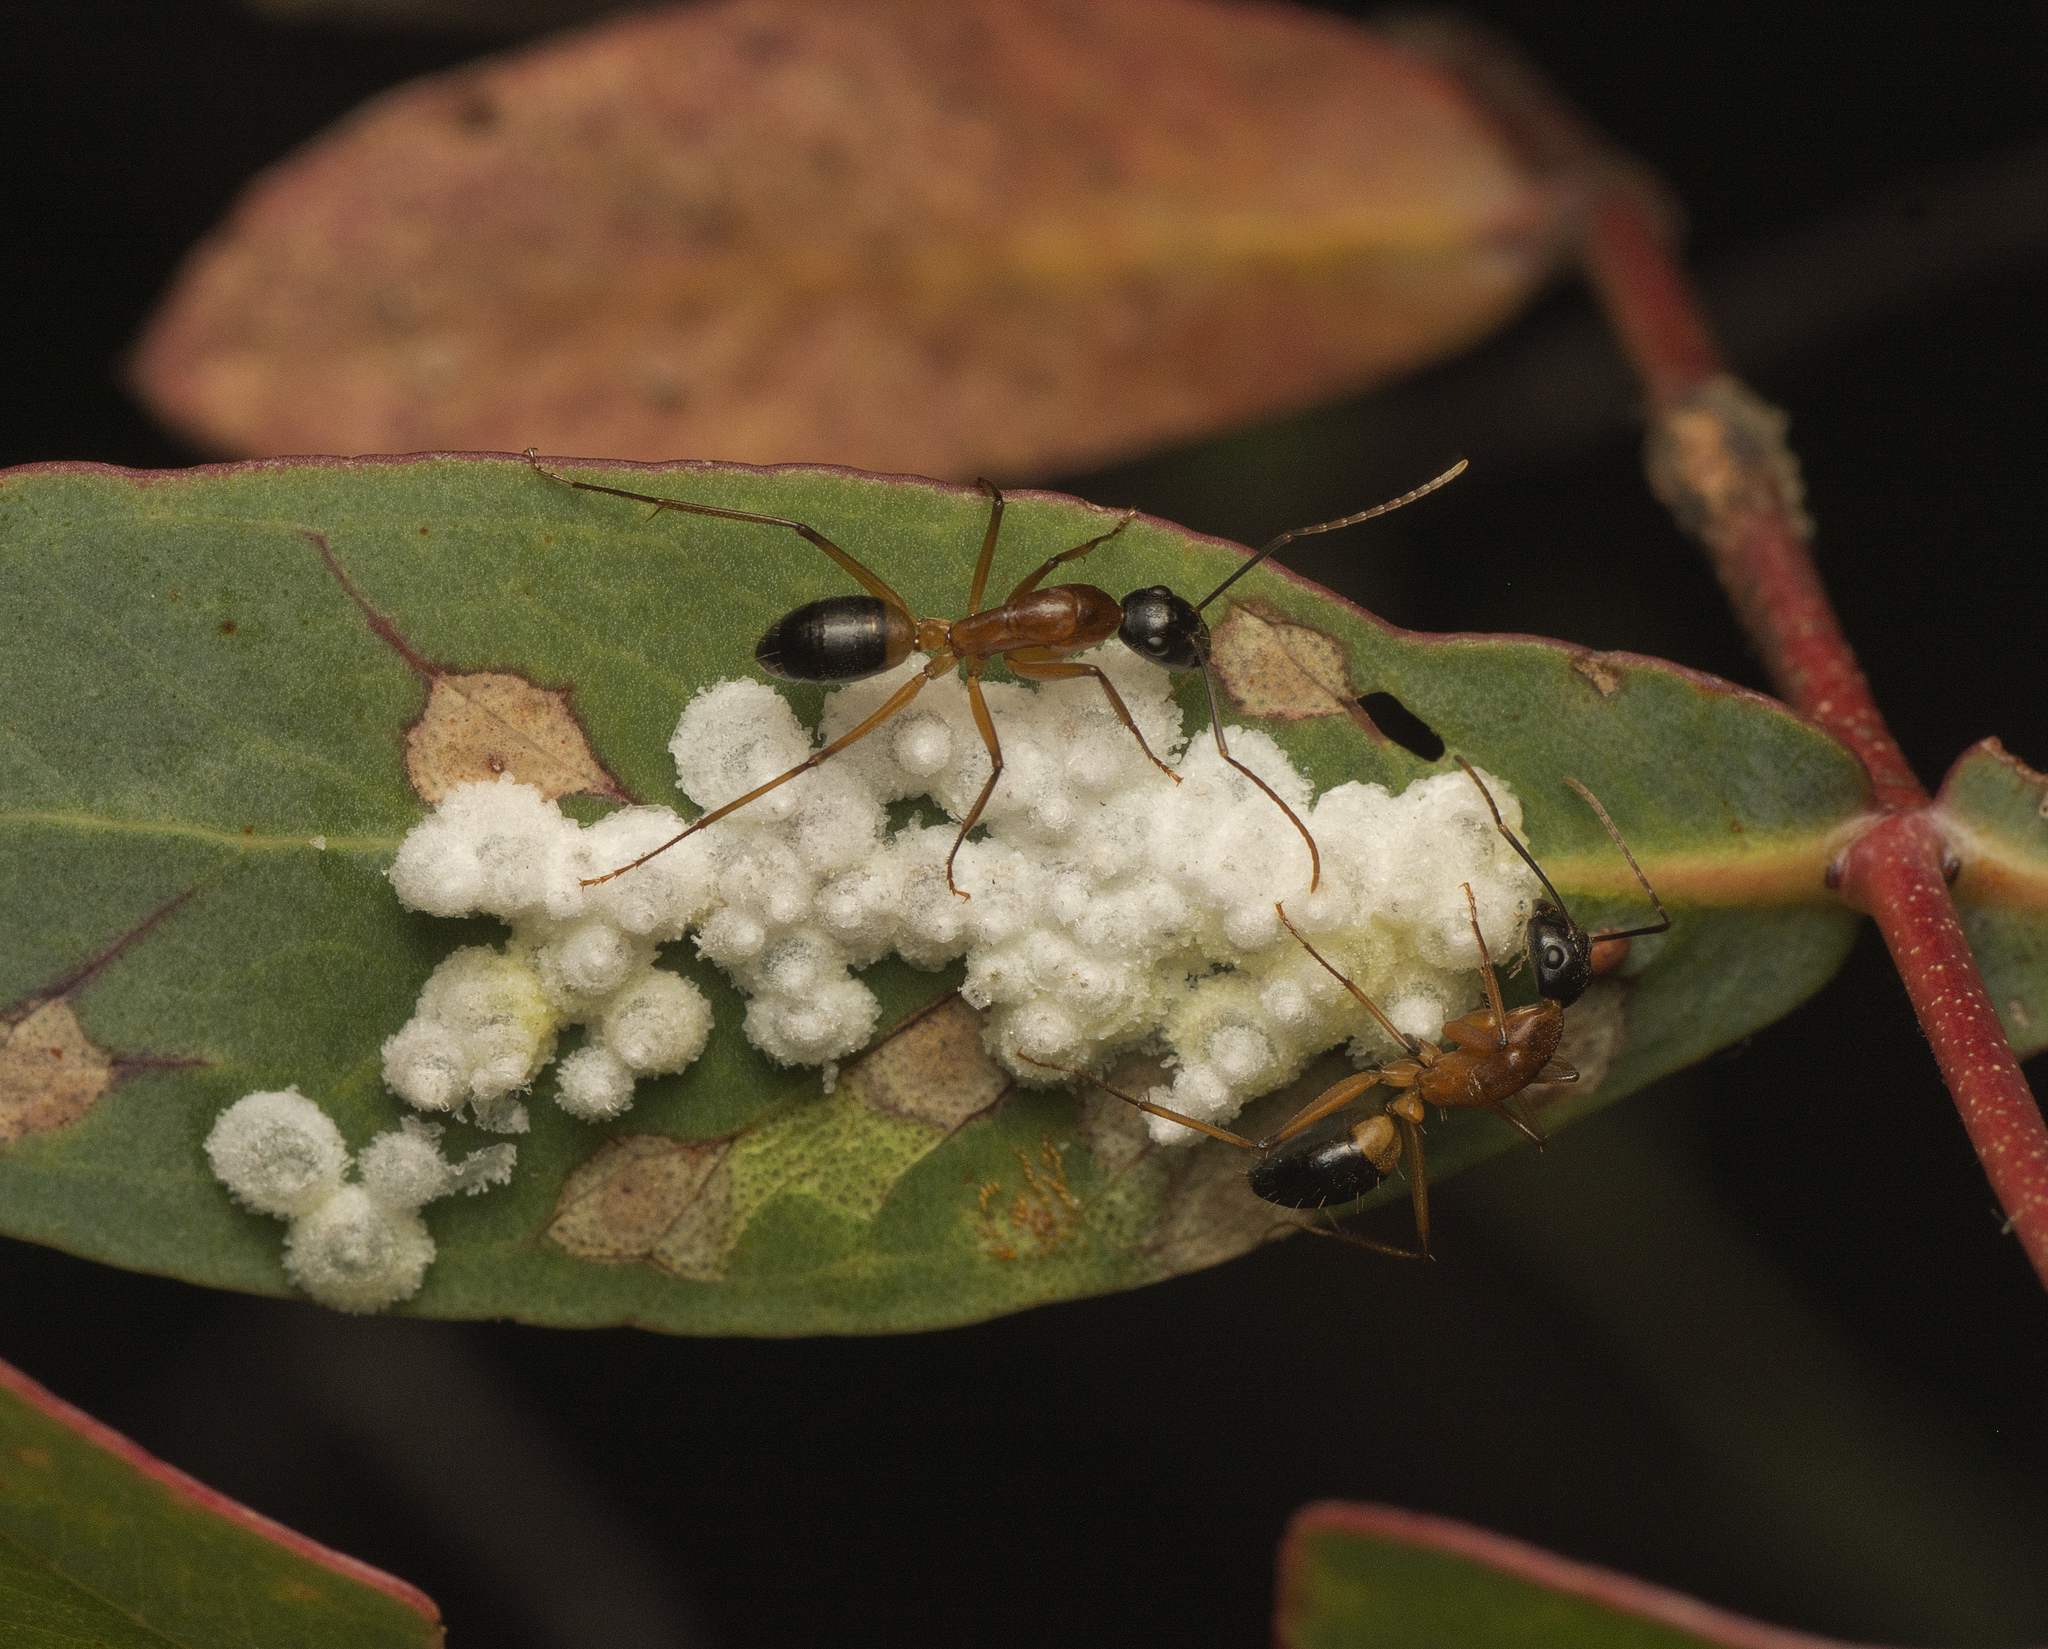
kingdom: Animalia
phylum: Arthropoda
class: Insecta
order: Hymenoptera
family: Formicidae
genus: Camponotus
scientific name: Camponotus consobrinus
